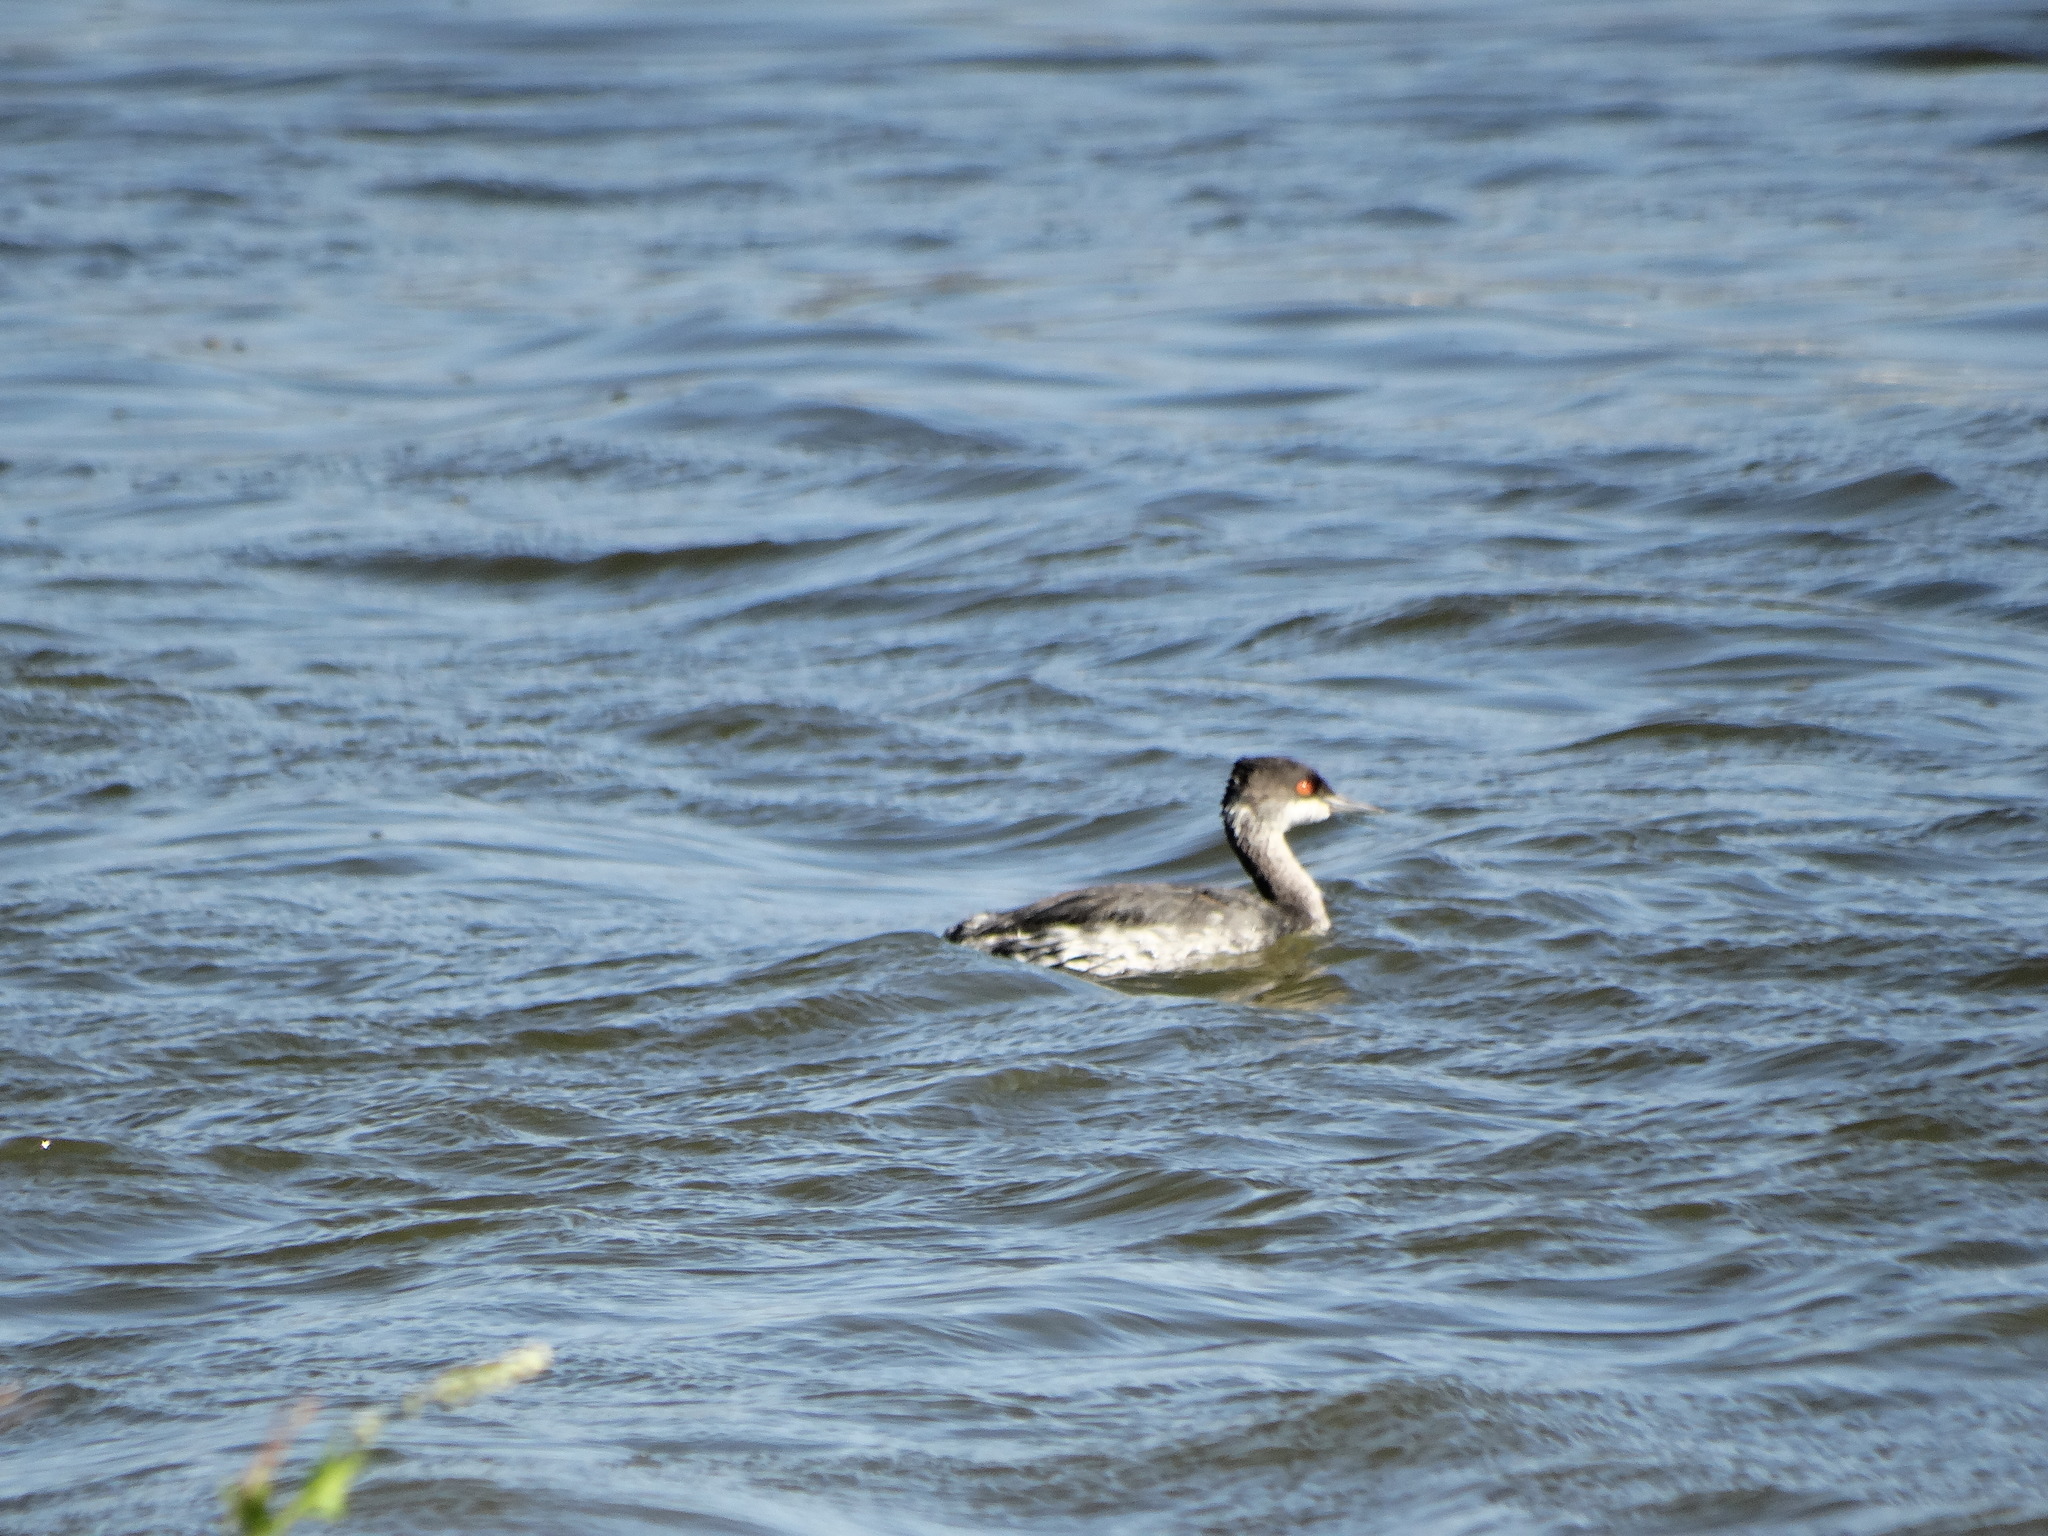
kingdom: Animalia
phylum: Chordata
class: Aves
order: Podicipediformes
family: Podicipedidae
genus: Podiceps
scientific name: Podiceps nigricollis
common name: Black-necked grebe
